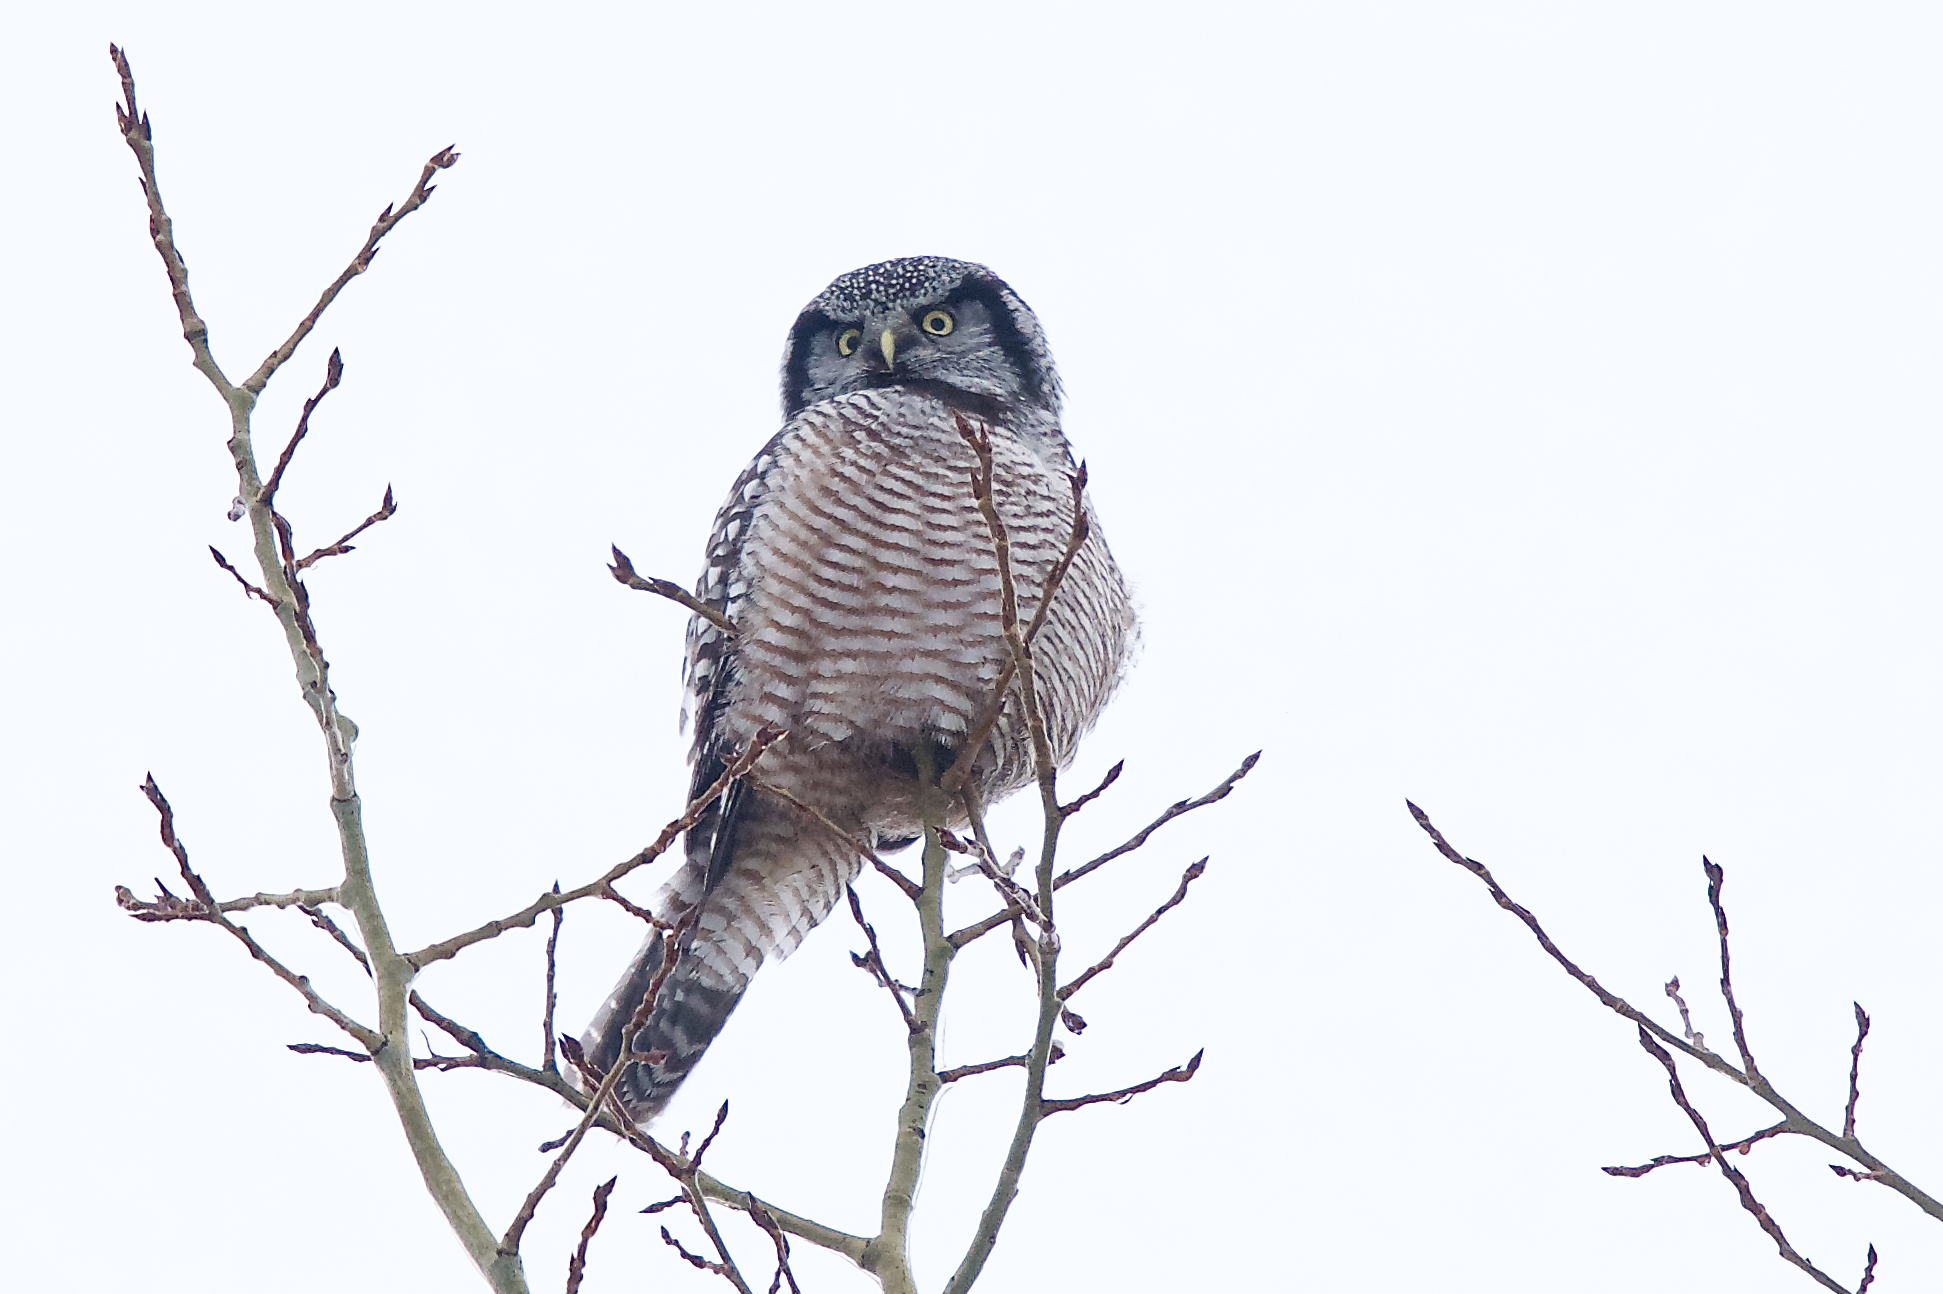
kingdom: Animalia
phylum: Chordata
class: Aves
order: Strigiformes
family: Strigidae
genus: Surnia
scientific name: Surnia ulula
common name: Northern hawk-owl
